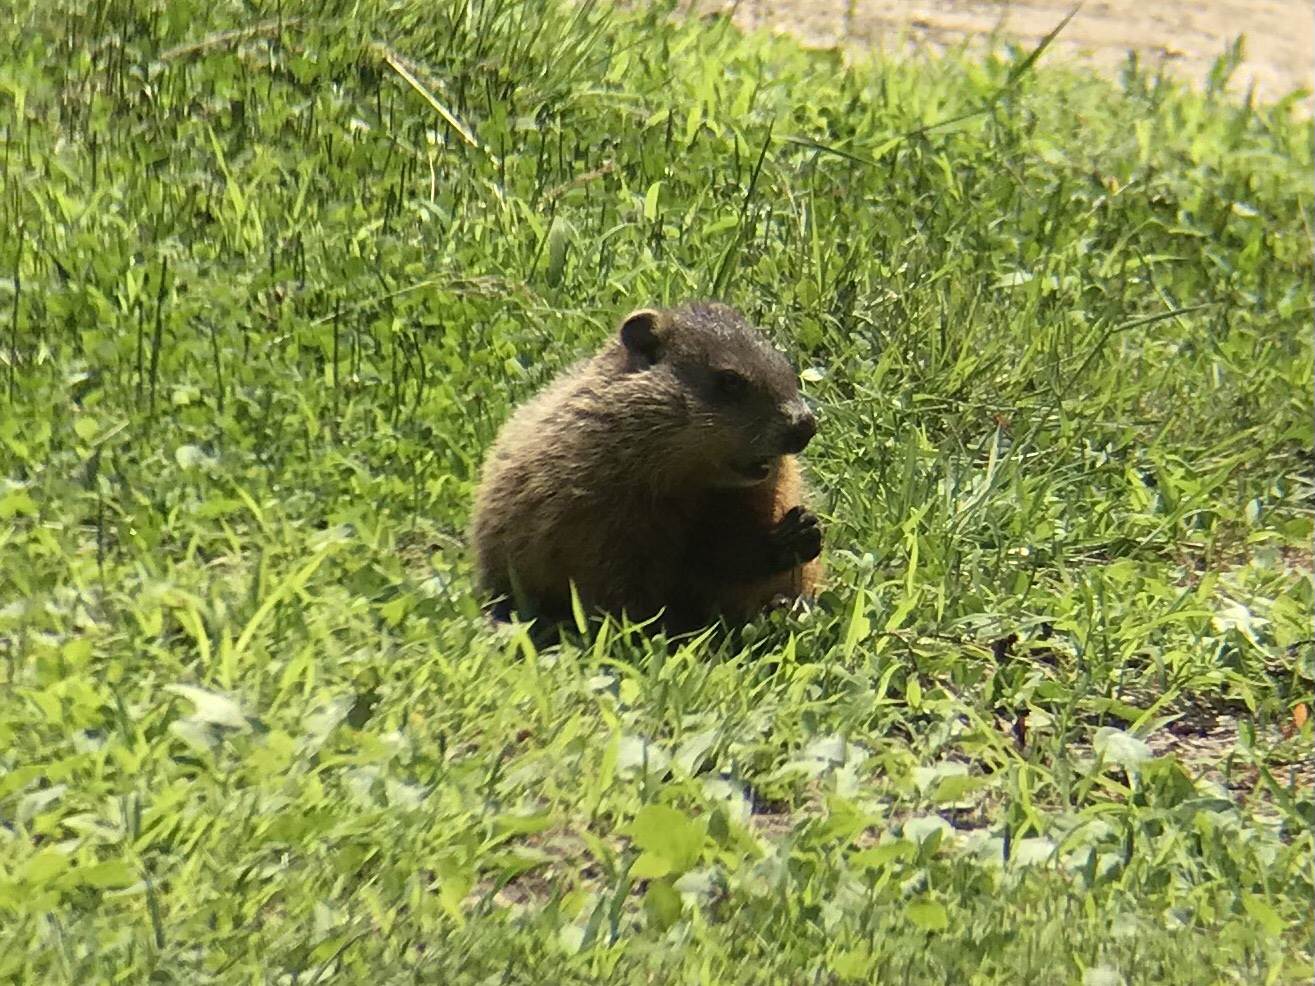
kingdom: Animalia
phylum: Chordata
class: Mammalia
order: Rodentia
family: Sciuridae
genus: Marmota
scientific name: Marmota monax
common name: Groundhog
